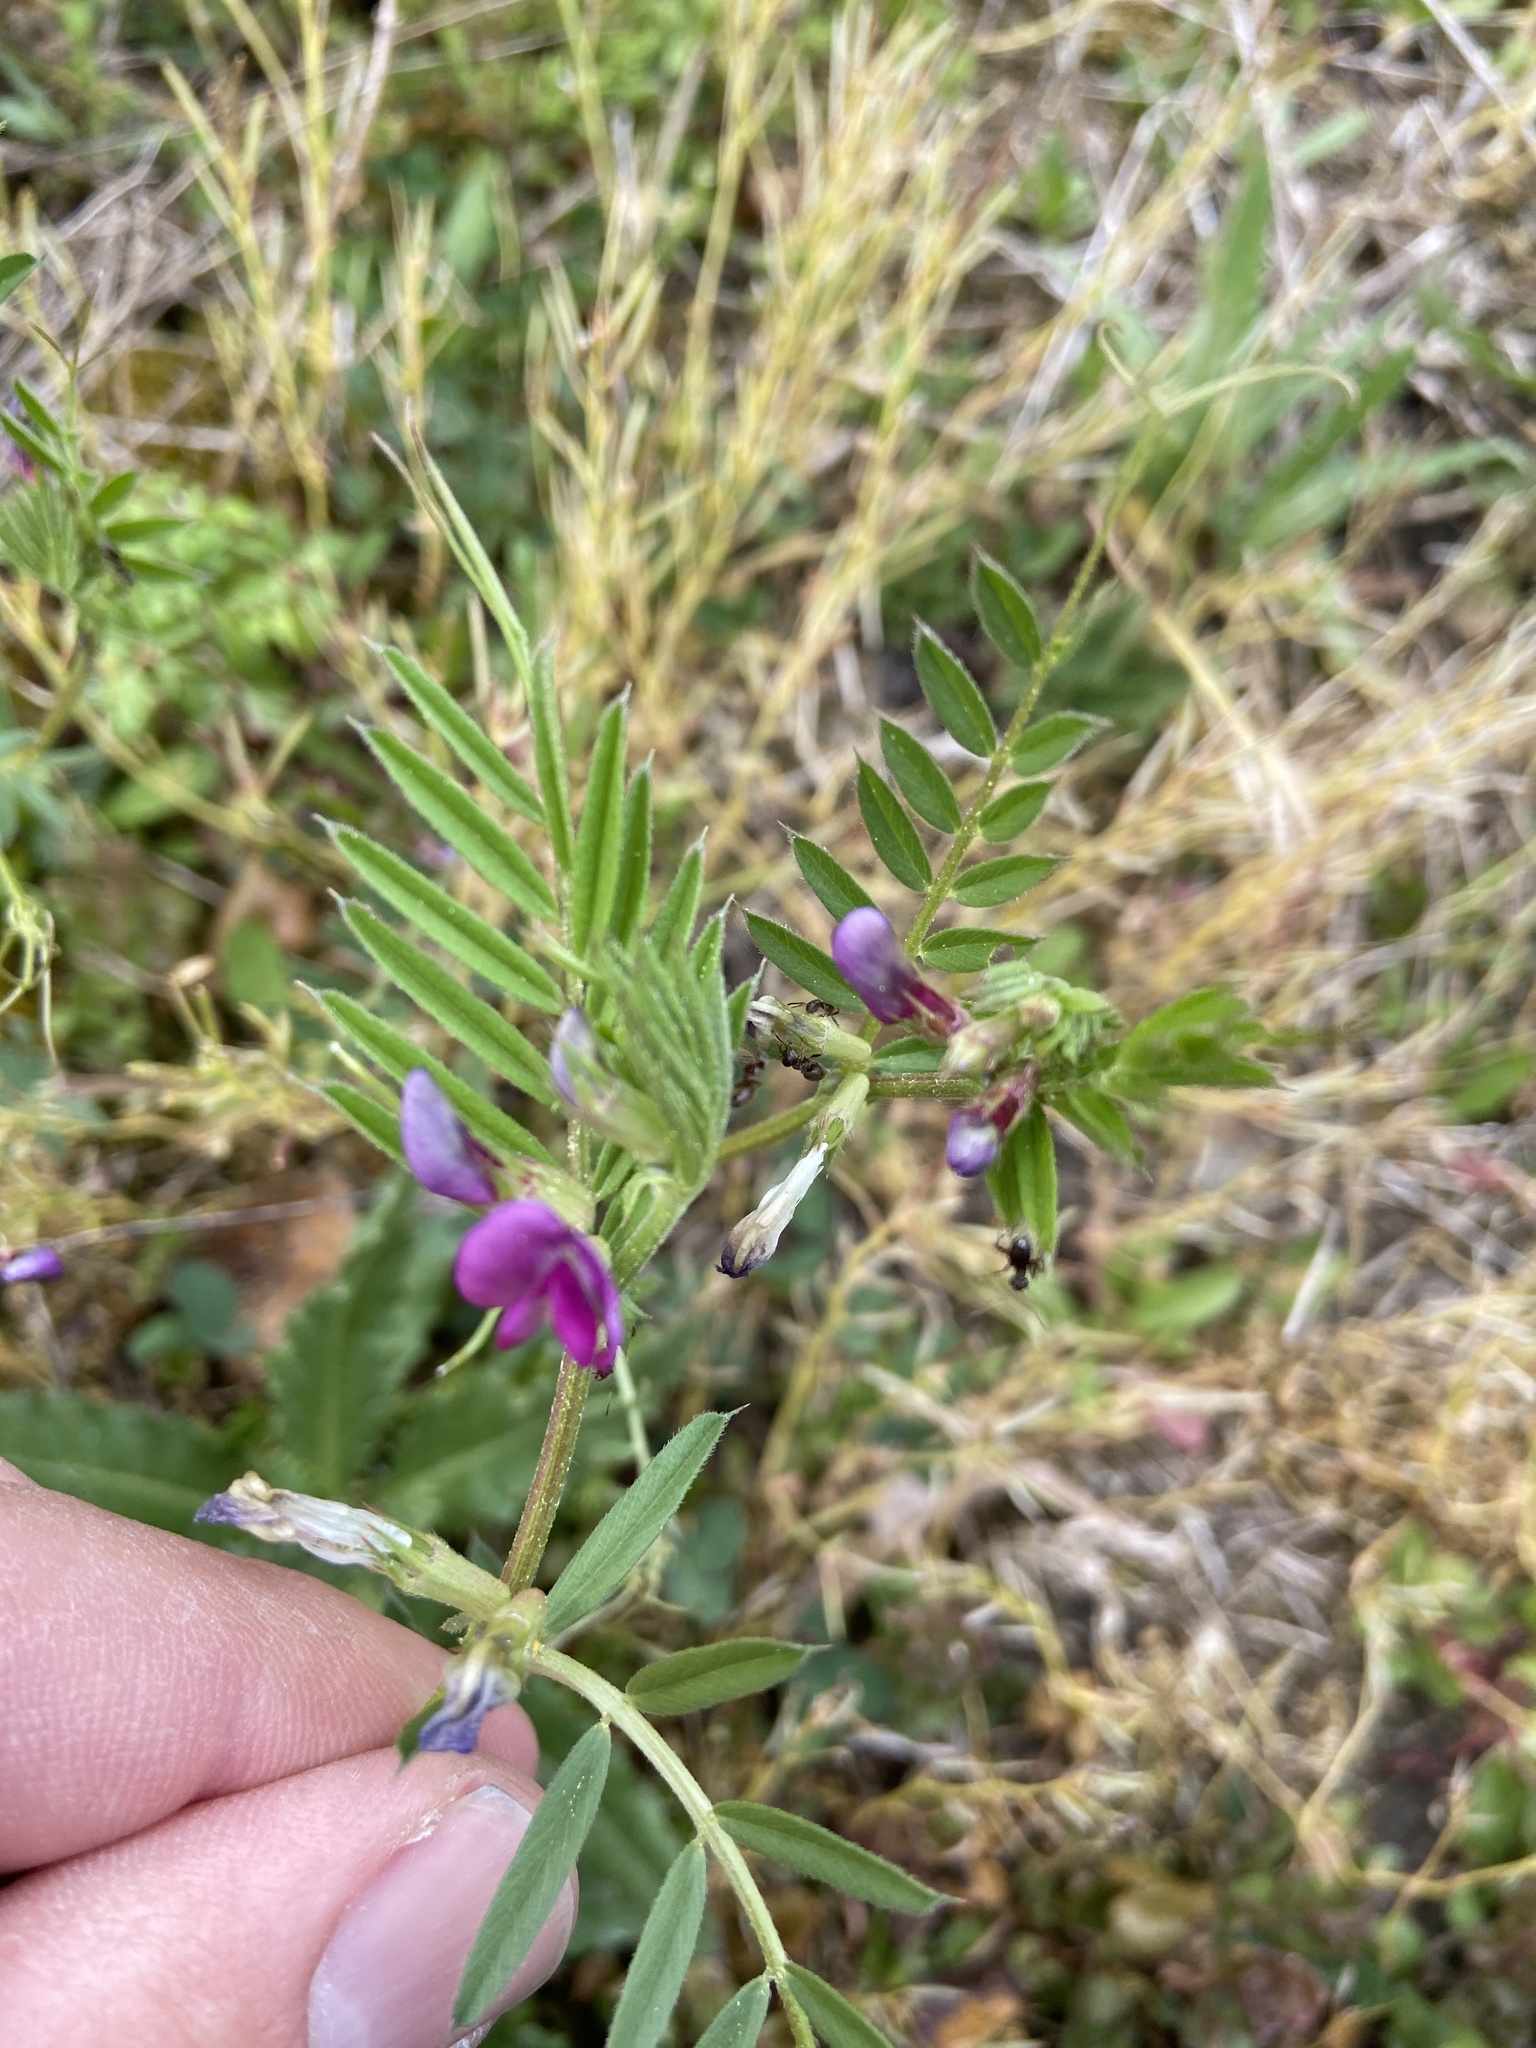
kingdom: Plantae
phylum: Tracheophyta
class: Magnoliopsida
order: Fabales
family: Fabaceae
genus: Vicia
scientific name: Vicia sativa
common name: Garden vetch
